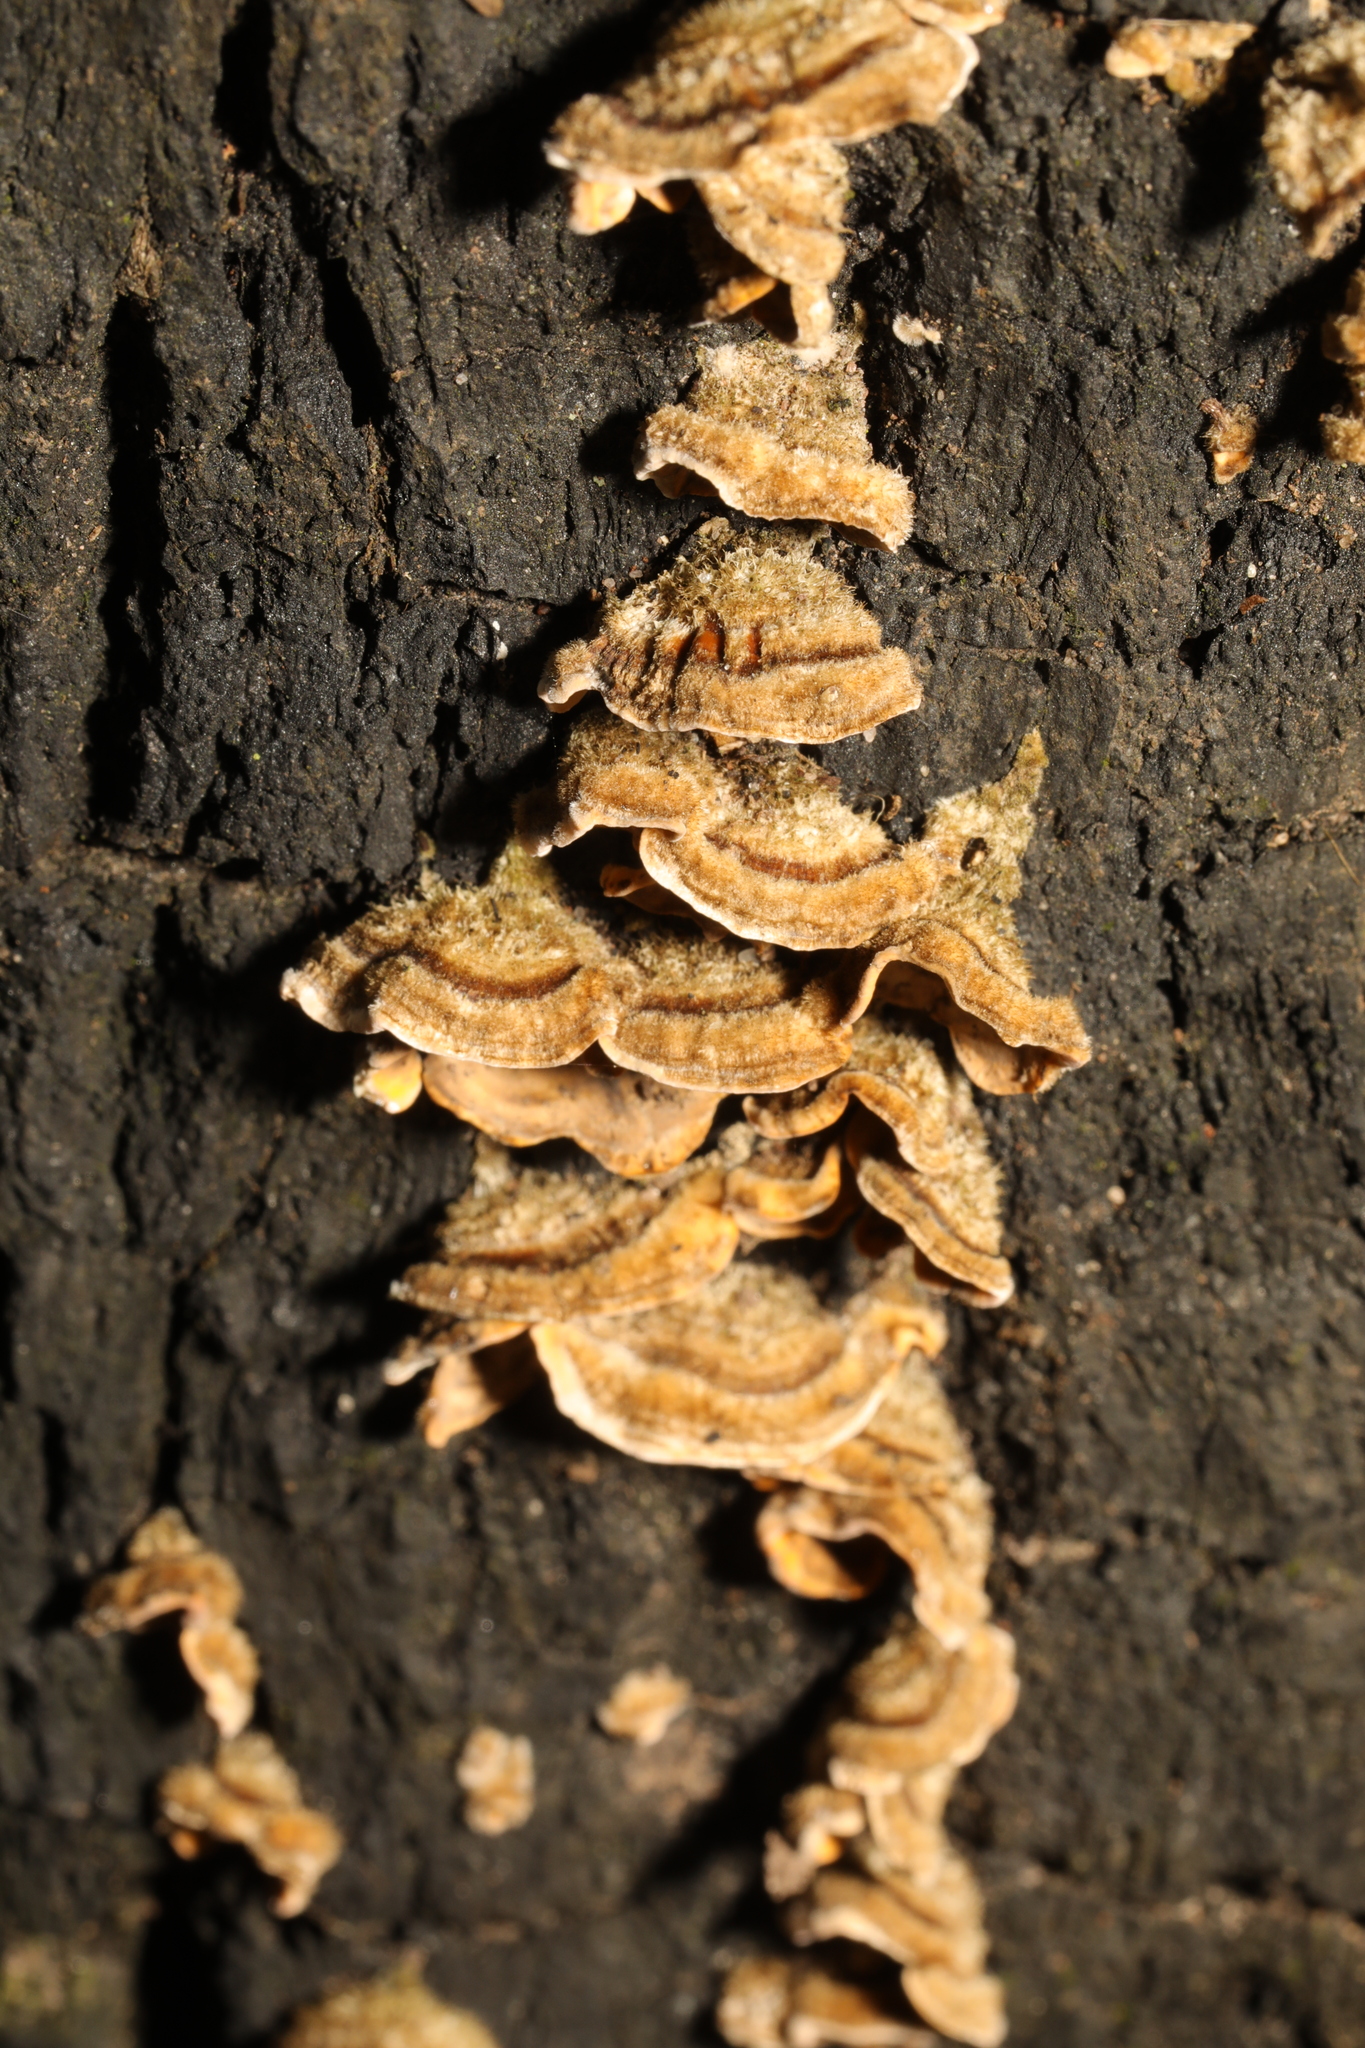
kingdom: Fungi
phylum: Basidiomycota
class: Agaricomycetes
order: Russulales
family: Stereaceae
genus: Stereum
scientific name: Stereum hirsutum
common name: Hairy curtain crust
